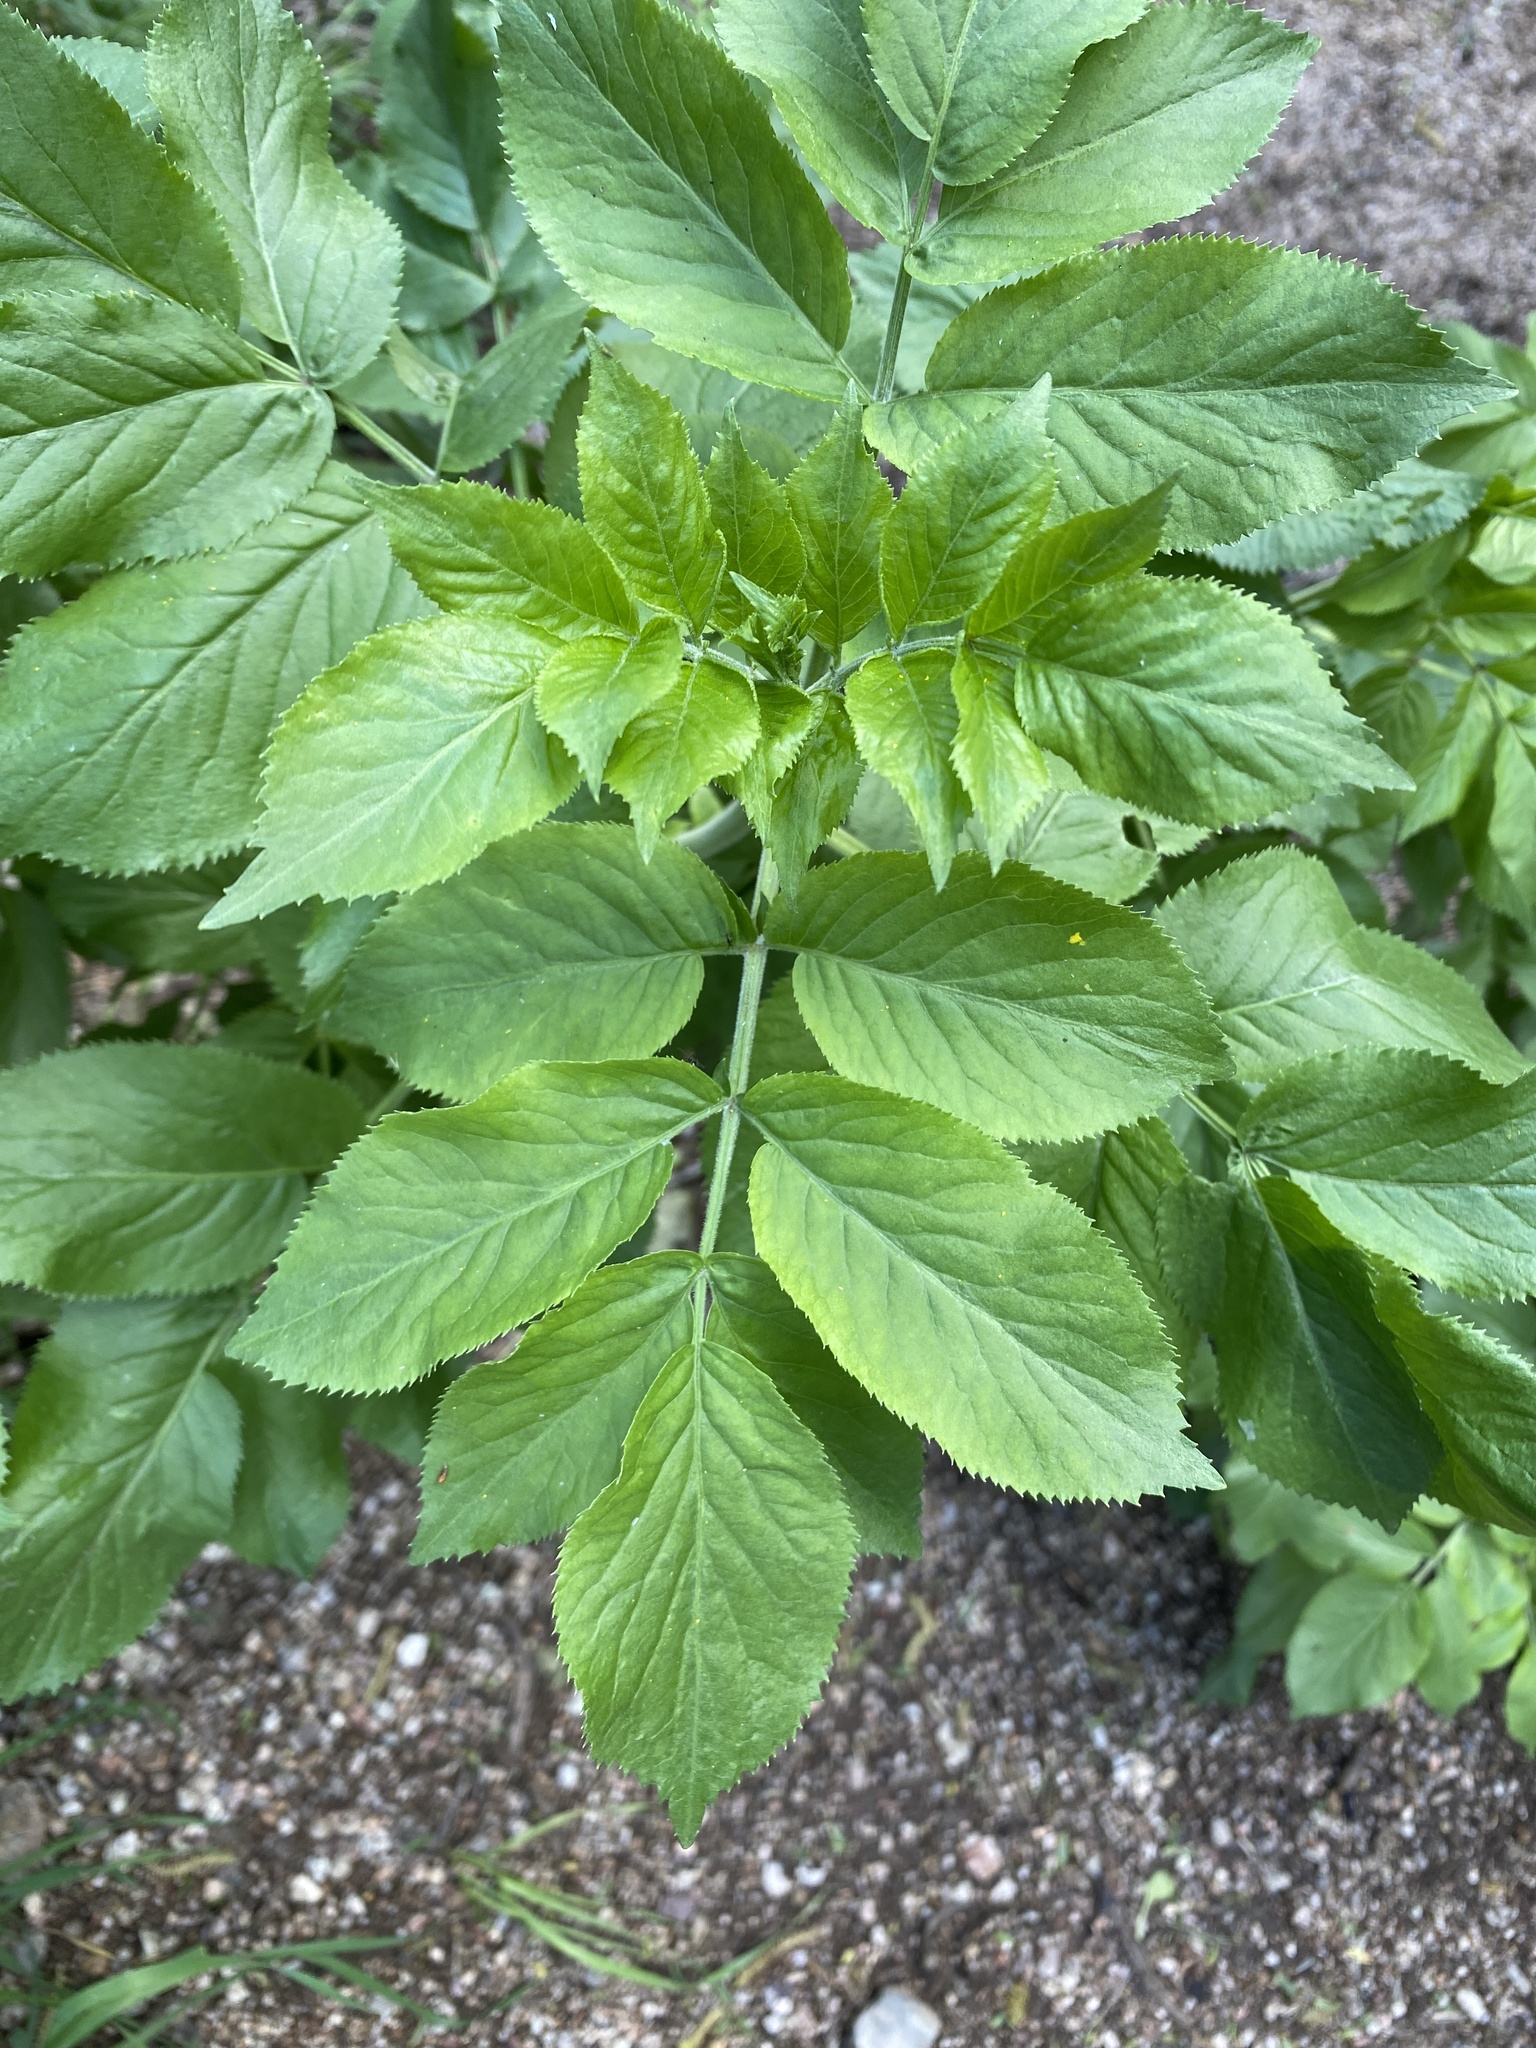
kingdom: Plantae
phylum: Tracheophyta
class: Magnoliopsida
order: Dipsacales
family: Viburnaceae
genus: Sambucus
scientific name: Sambucus cerulea
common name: Blue elder
